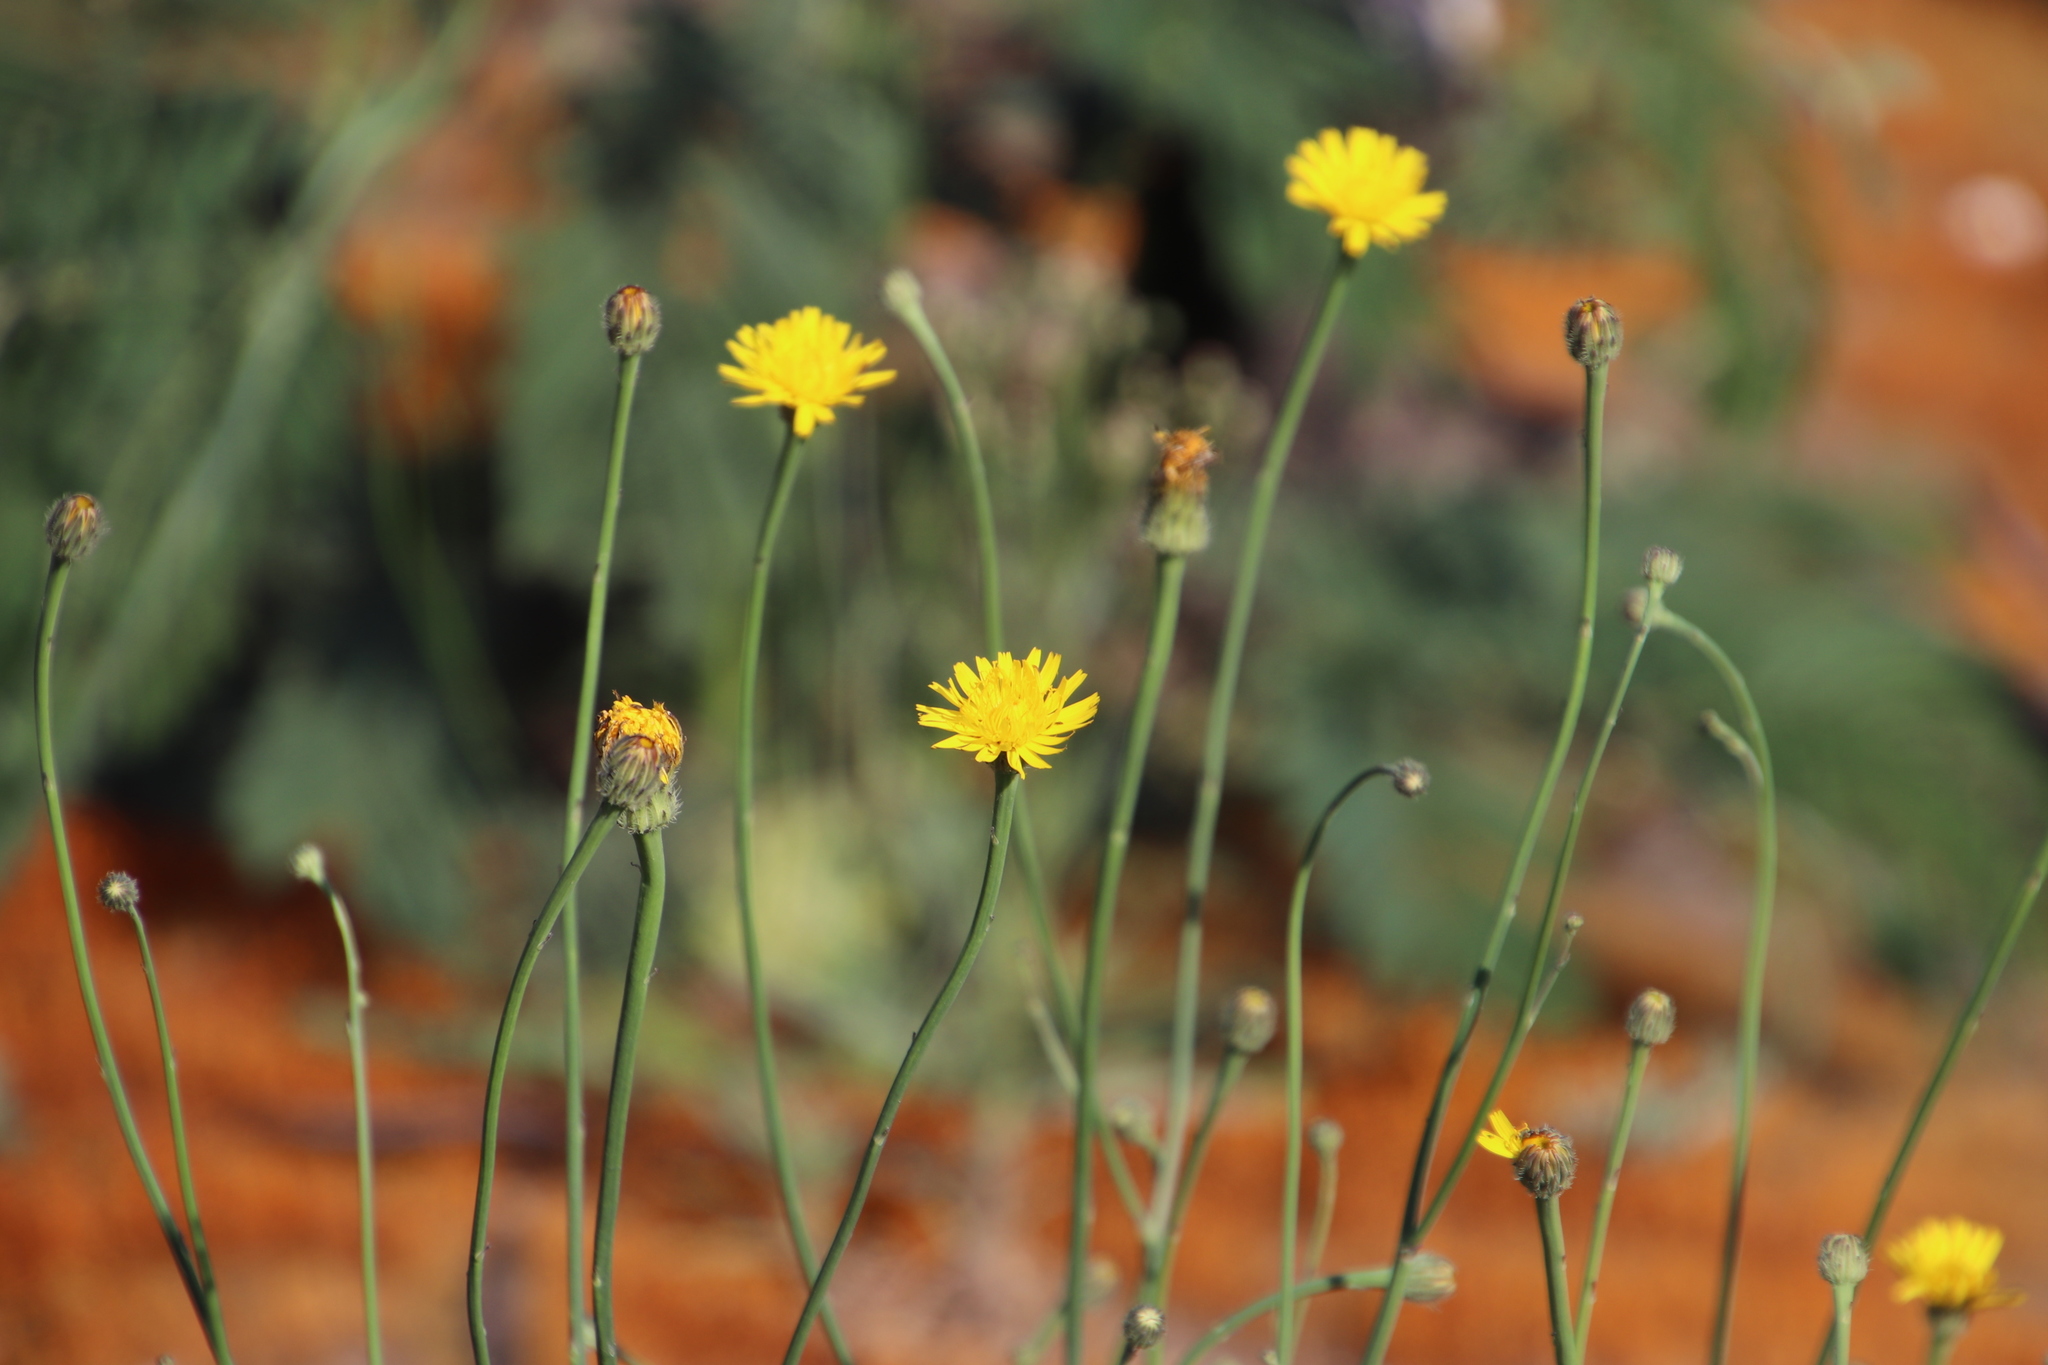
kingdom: Plantae
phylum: Tracheophyta
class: Magnoliopsida
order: Asterales
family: Asteraceae
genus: Hypochaeris
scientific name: Hypochaeris radicata
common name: Flatweed
